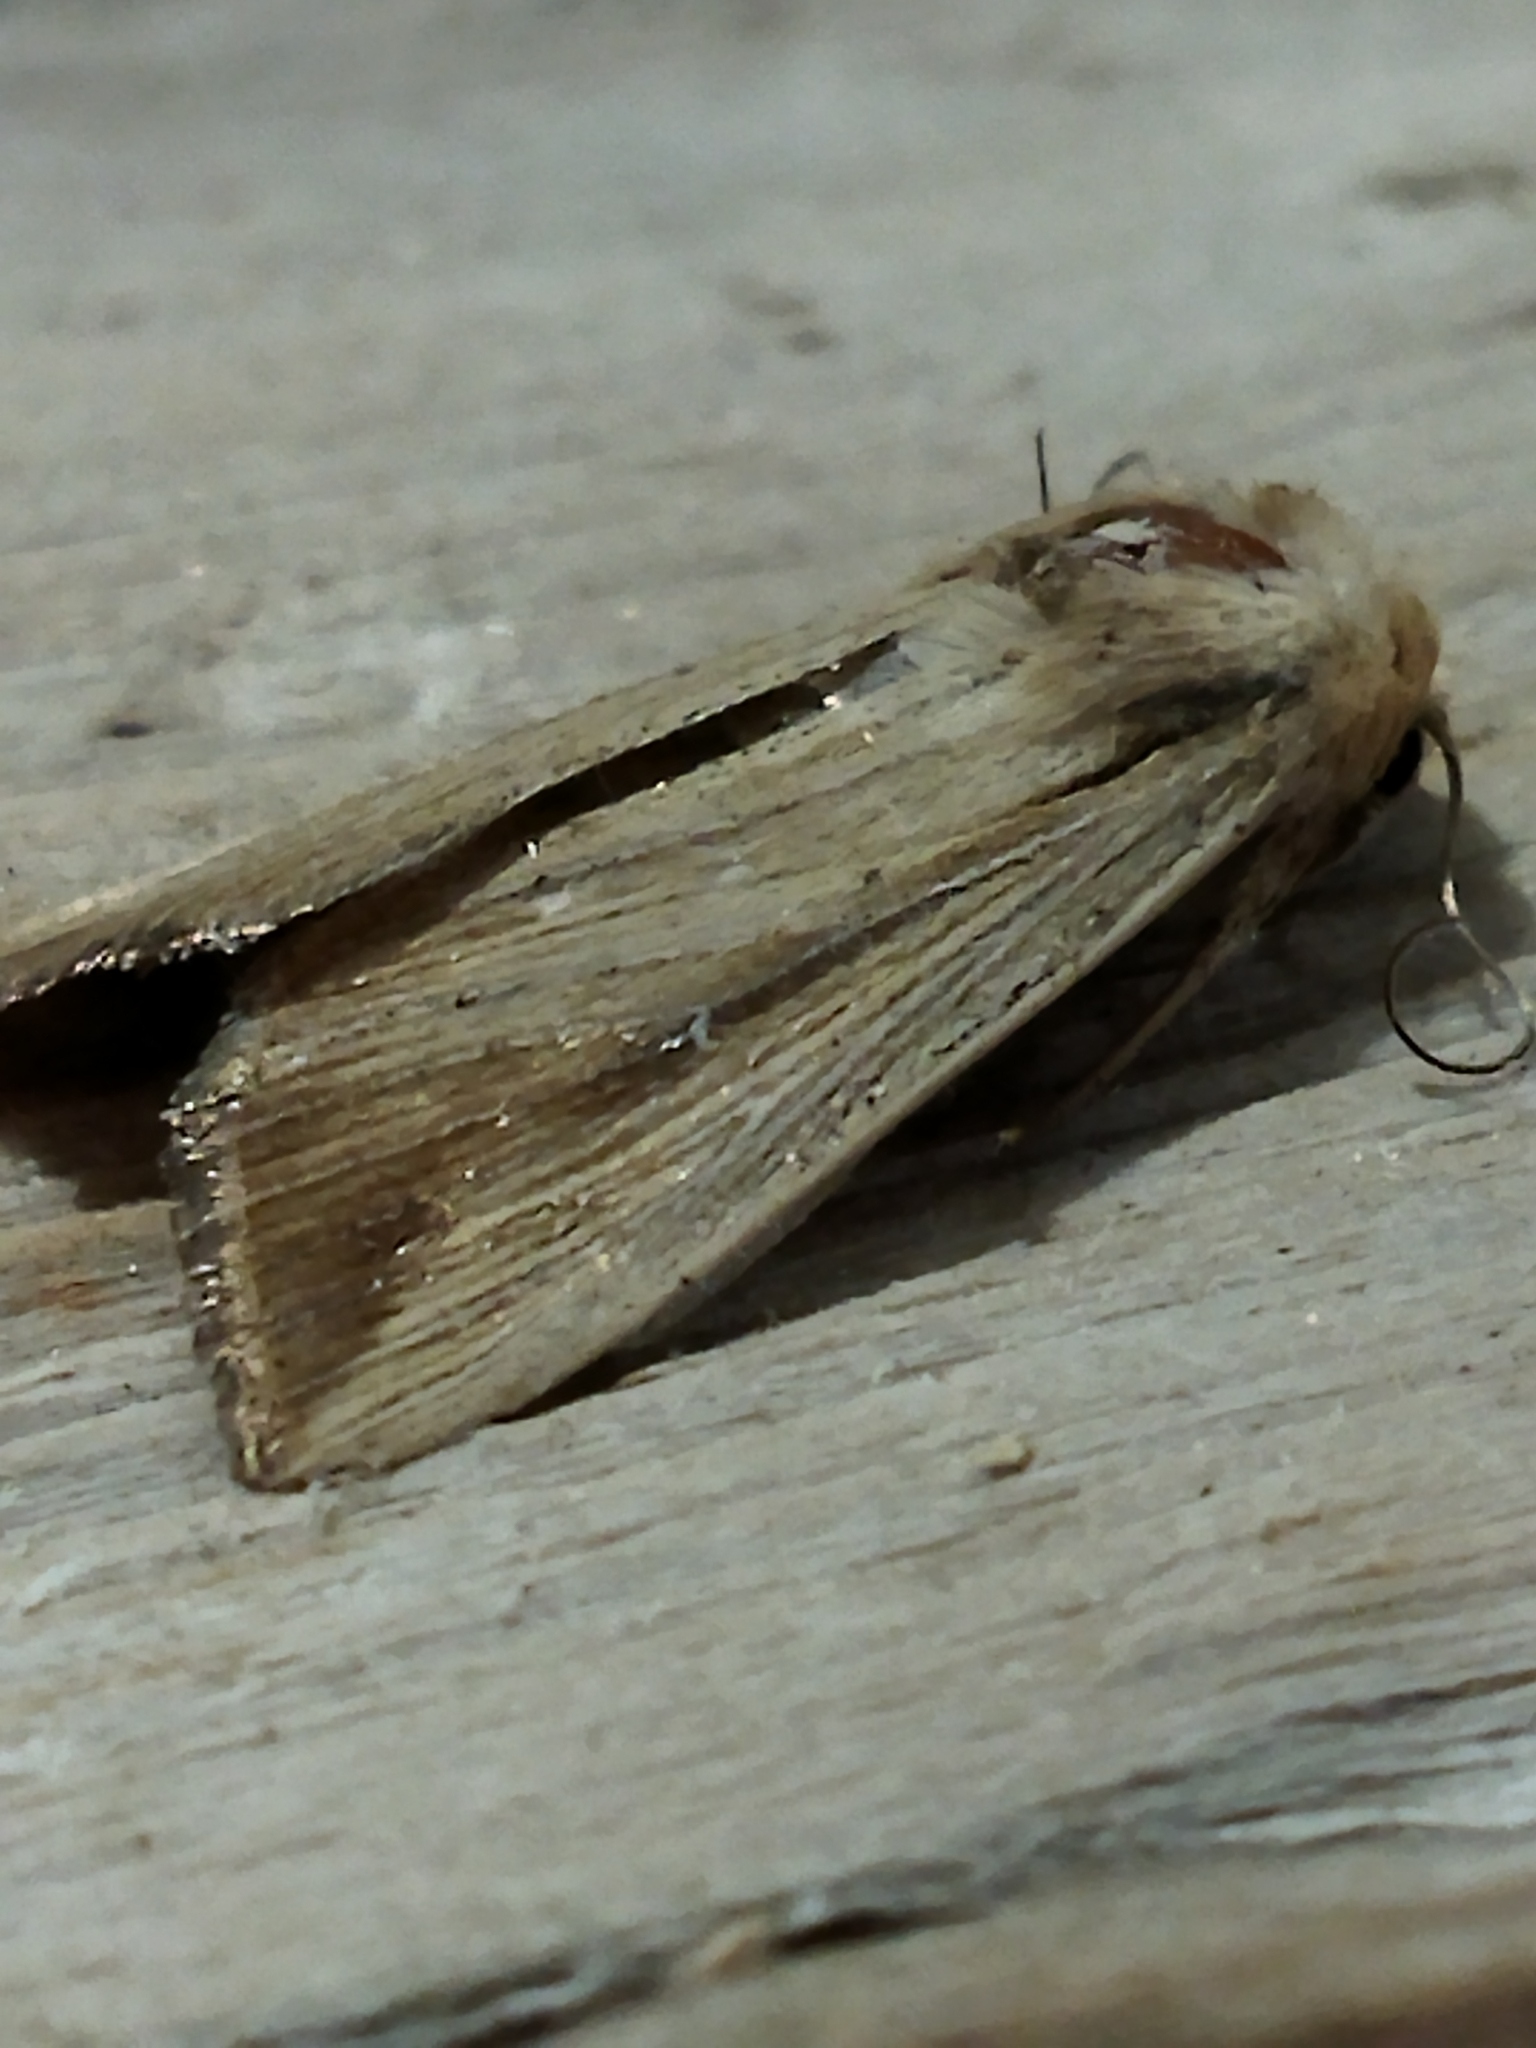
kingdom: Animalia
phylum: Arthropoda
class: Insecta
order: Lepidoptera
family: Noctuidae
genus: Leucania
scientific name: Leucania loreyi
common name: The cosmopolitan
